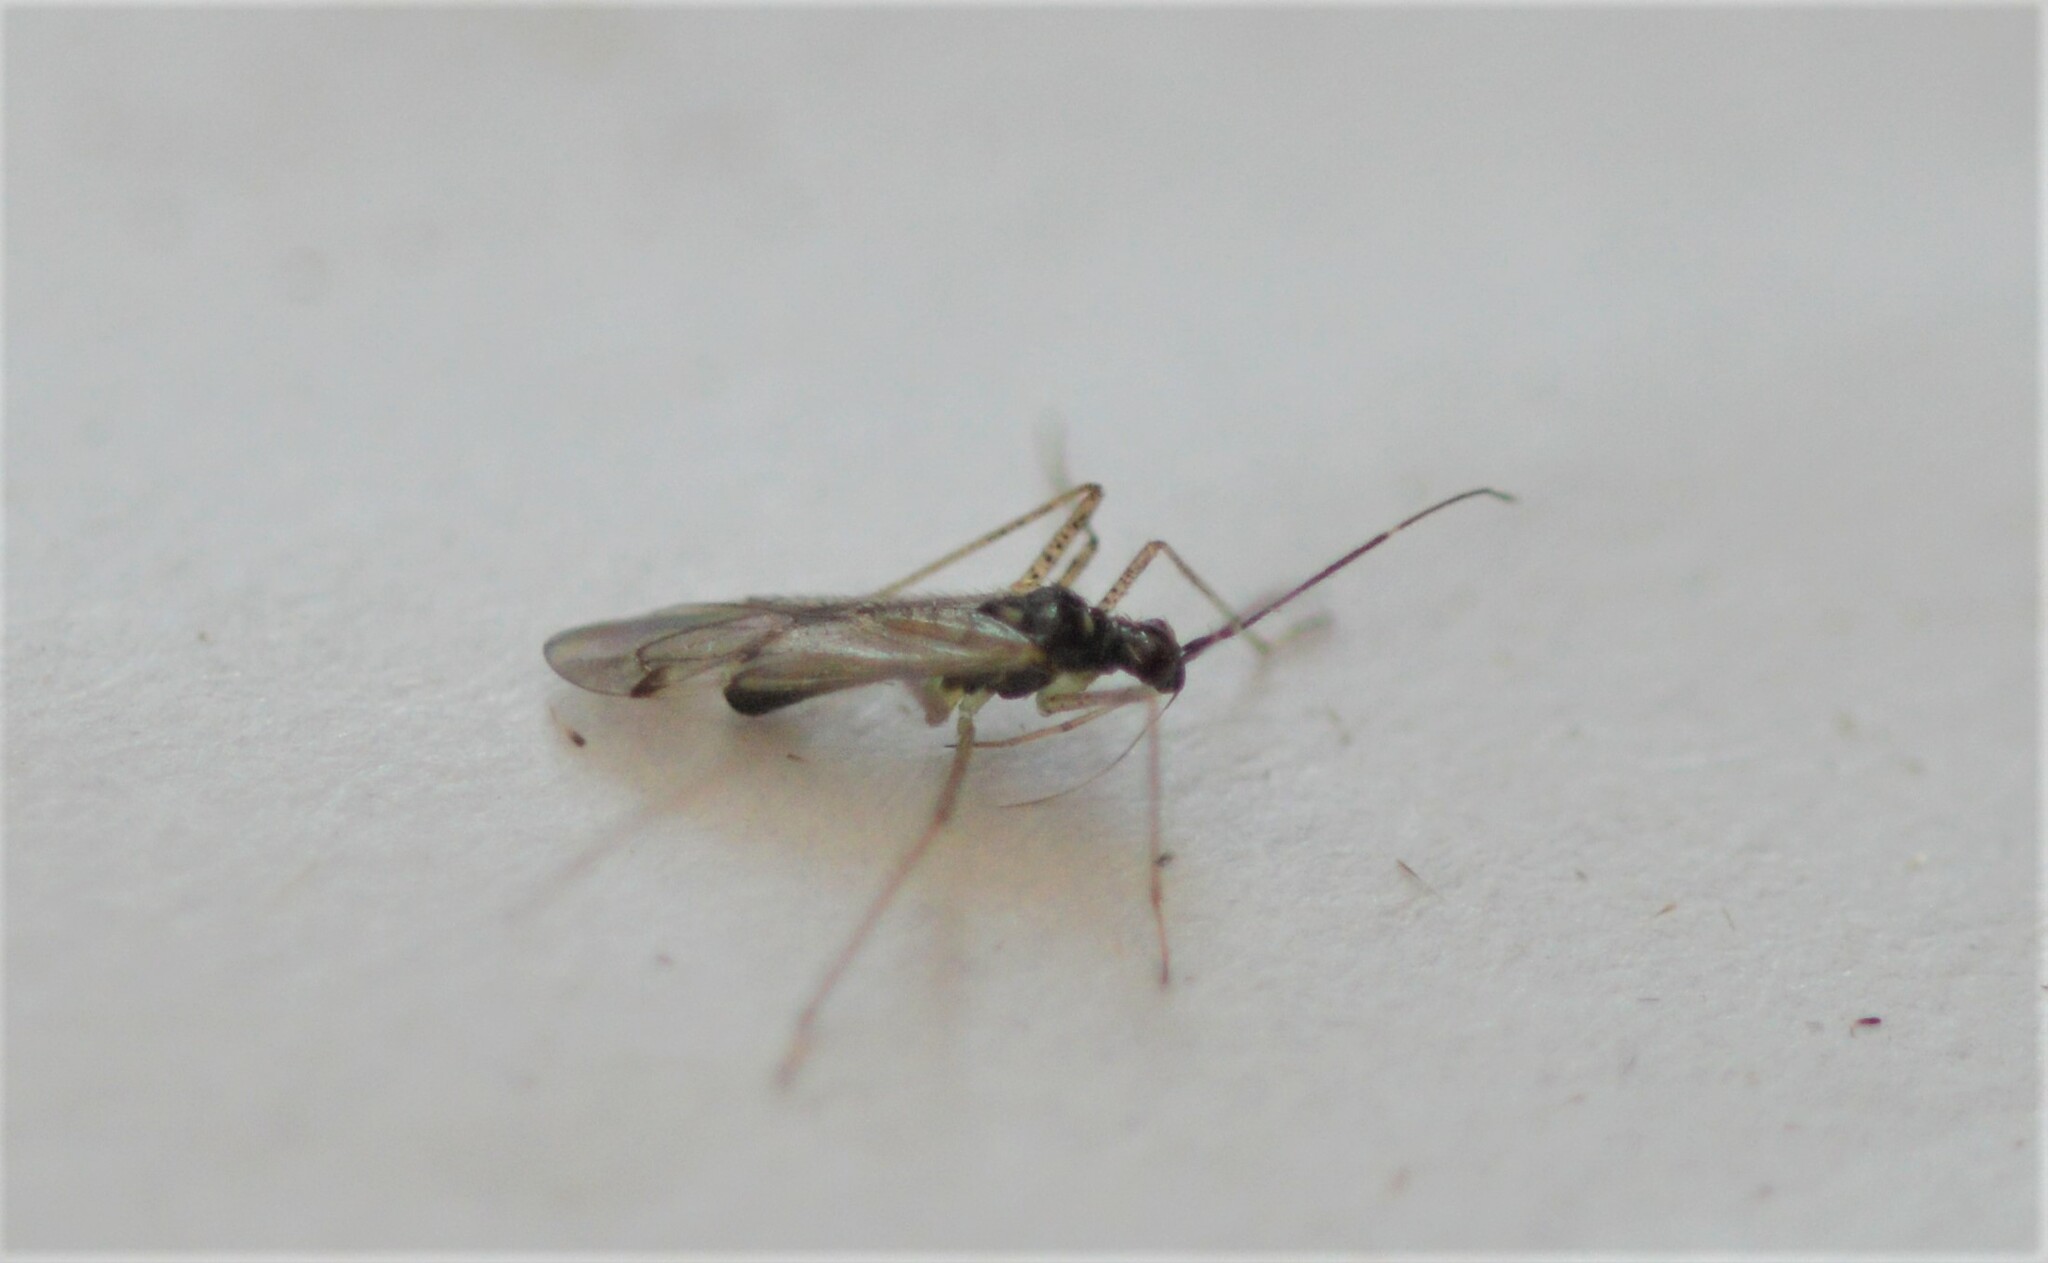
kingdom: Animalia
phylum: Arthropoda
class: Insecta
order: Hemiptera
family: Miridae
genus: Dicyphus
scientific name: Dicyphus errans
